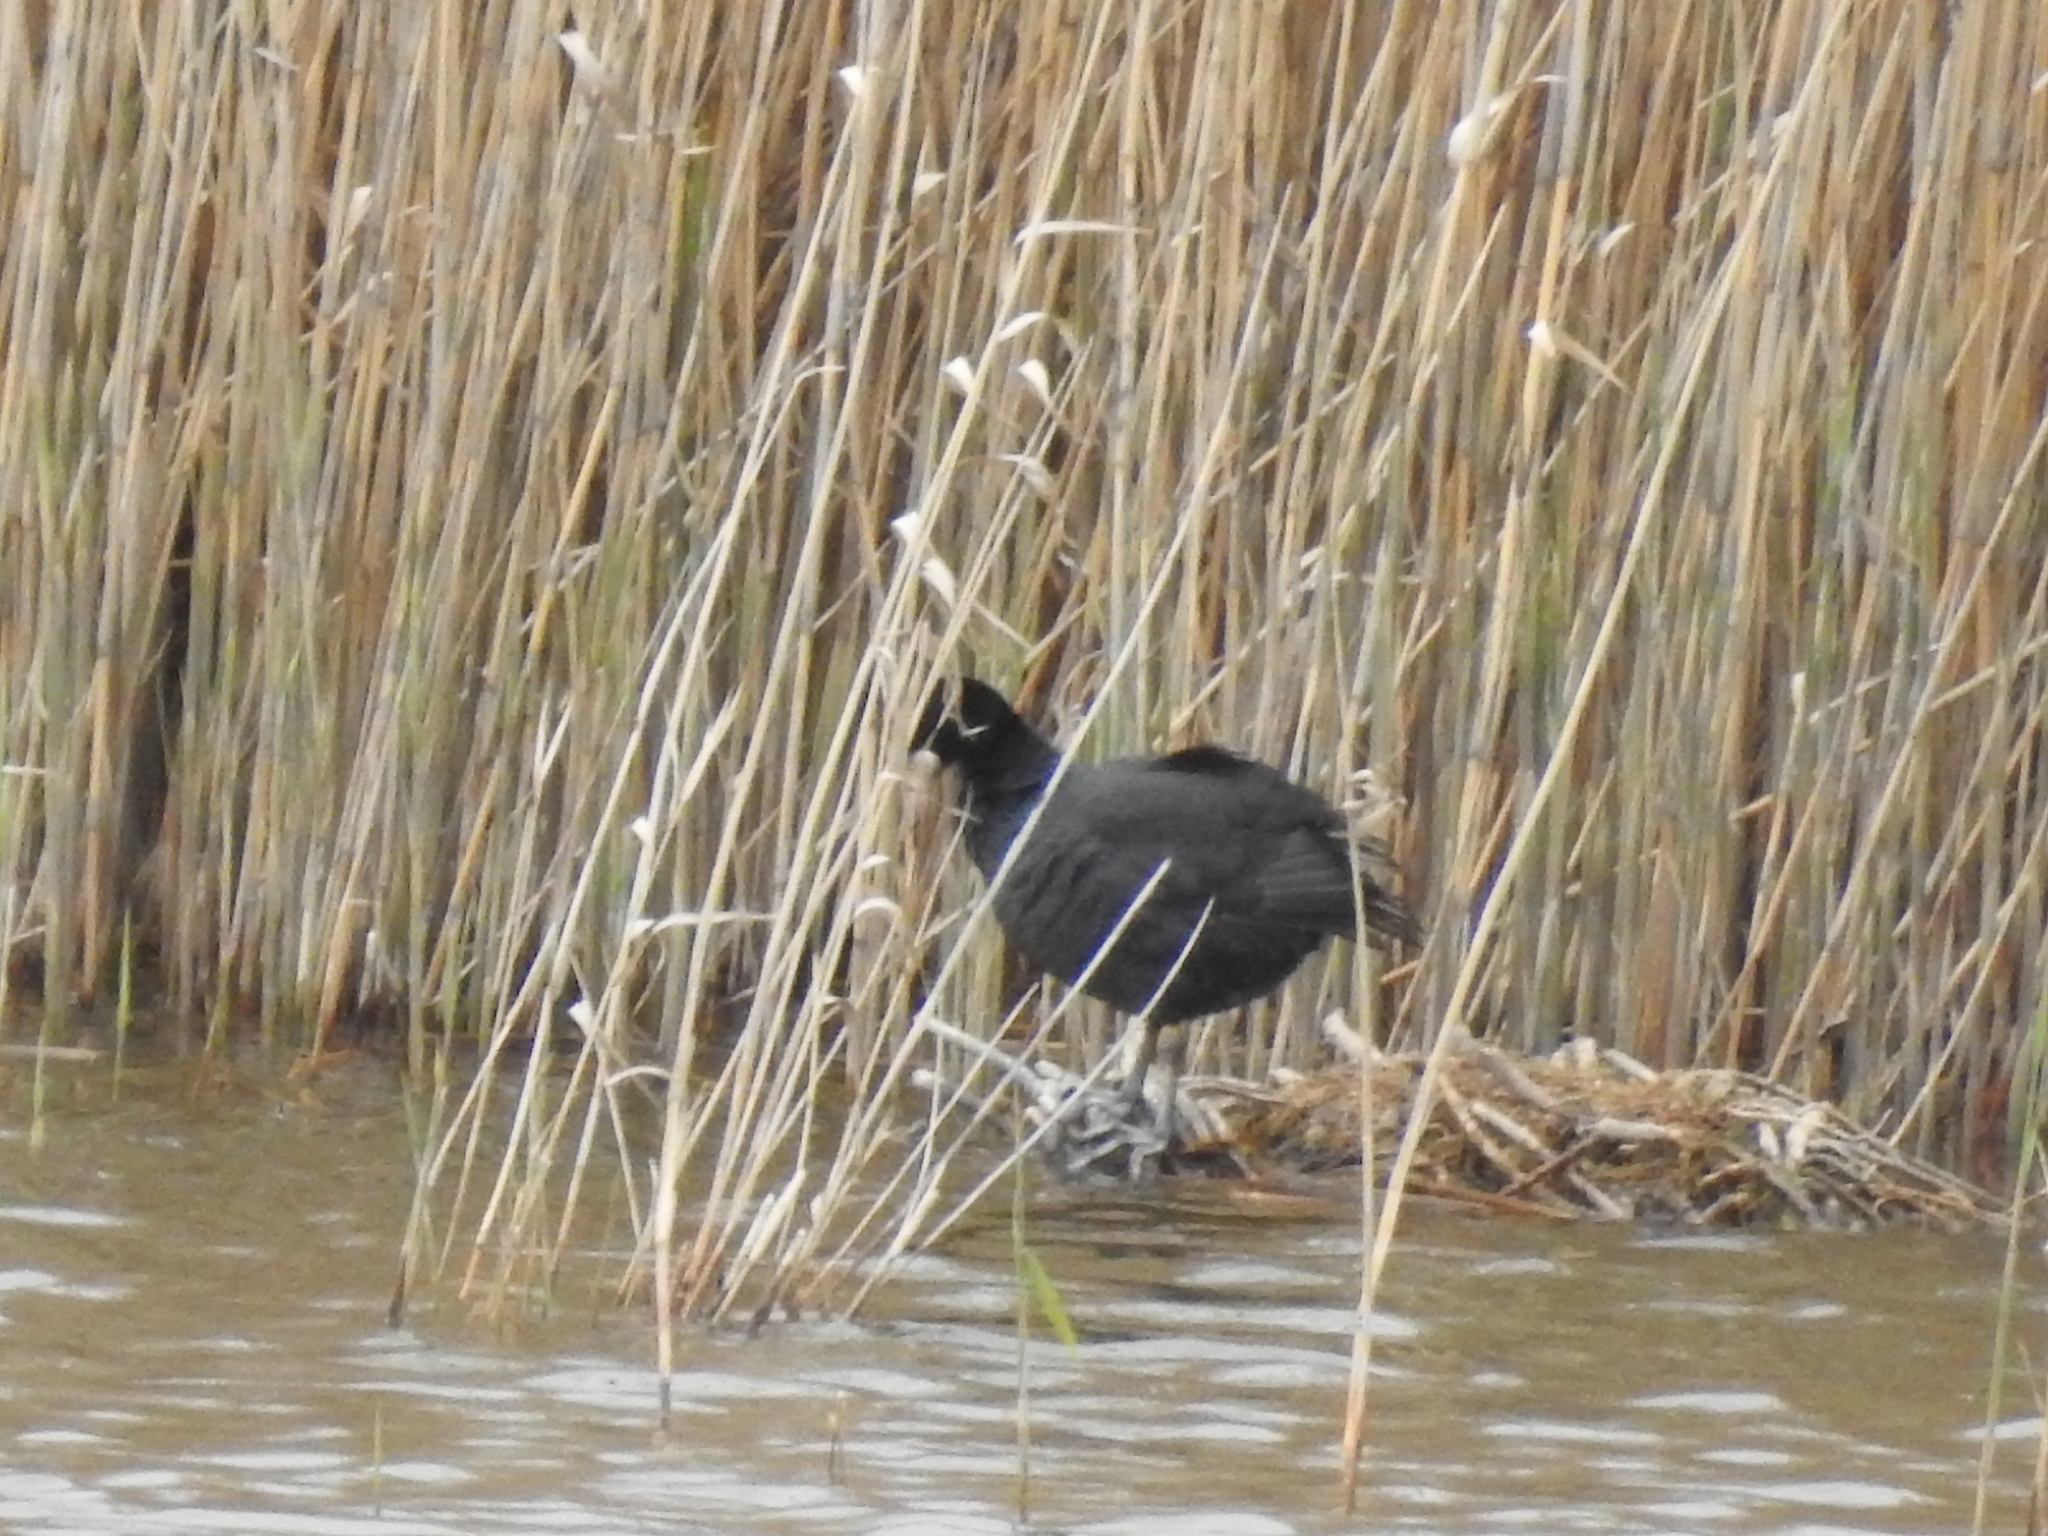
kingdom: Animalia
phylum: Chordata
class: Aves
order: Gruiformes
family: Rallidae
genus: Fulica
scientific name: Fulica atra
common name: Eurasian coot
